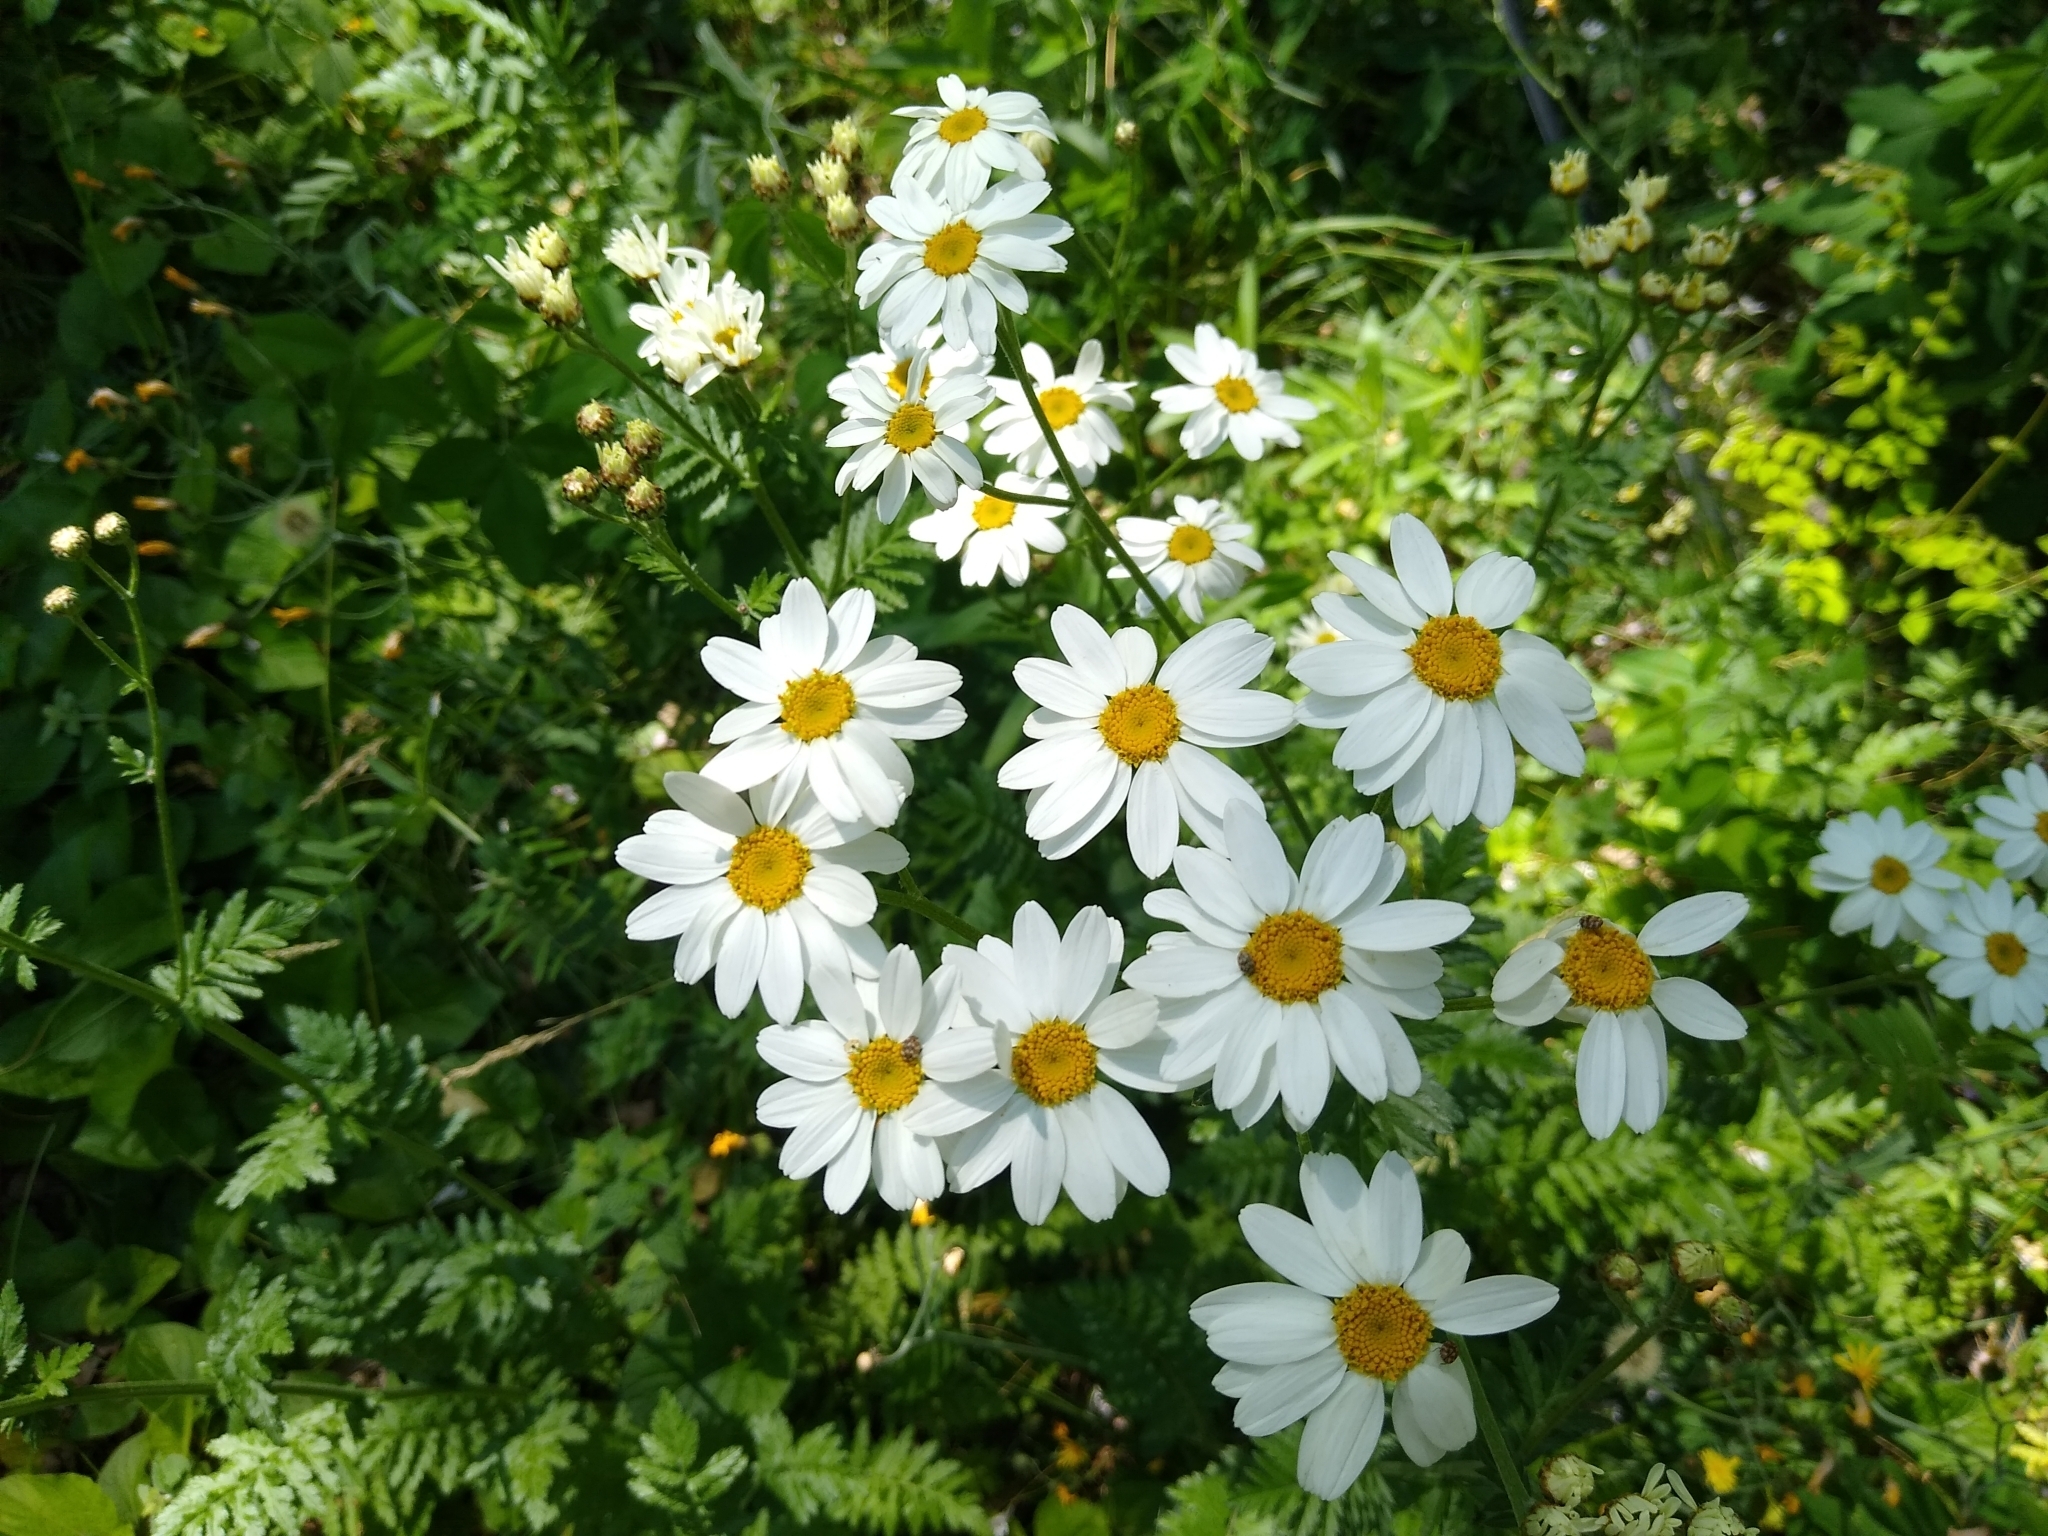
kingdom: Plantae
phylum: Tracheophyta
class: Magnoliopsida
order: Asterales
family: Asteraceae
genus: Tanacetum
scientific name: Tanacetum corymbosum
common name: Scentless feverfew
